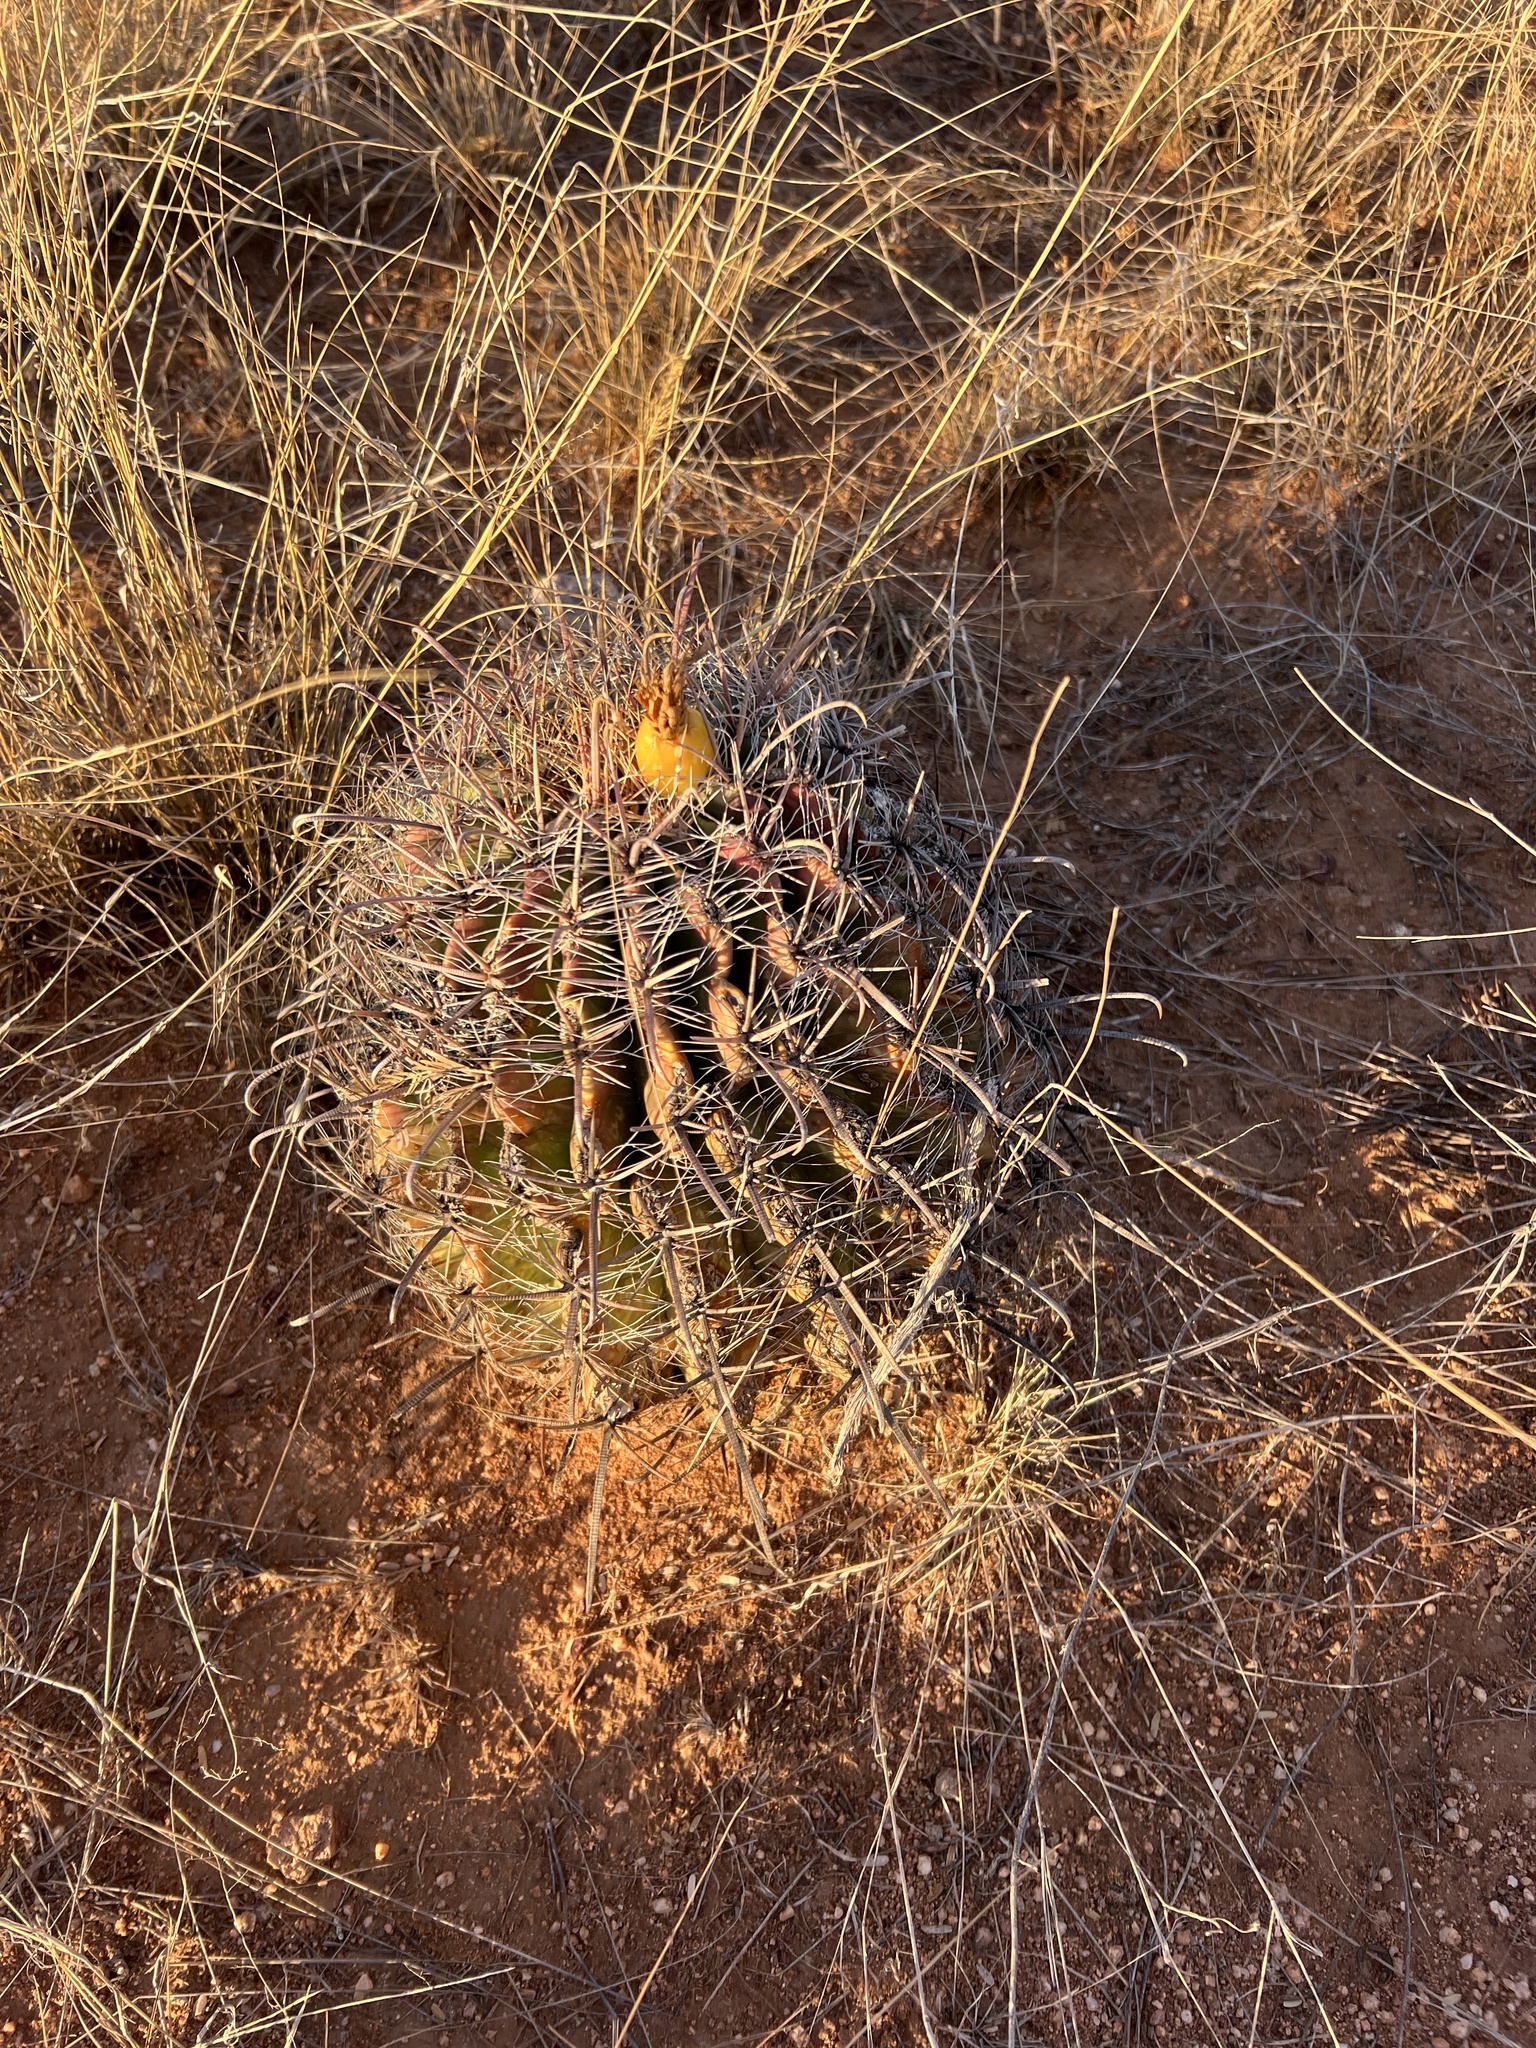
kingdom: Plantae
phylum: Tracheophyta
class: Magnoliopsida
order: Caryophyllales
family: Cactaceae
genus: Ferocactus
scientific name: Ferocactus wislizeni
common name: Candy barrel cactus
